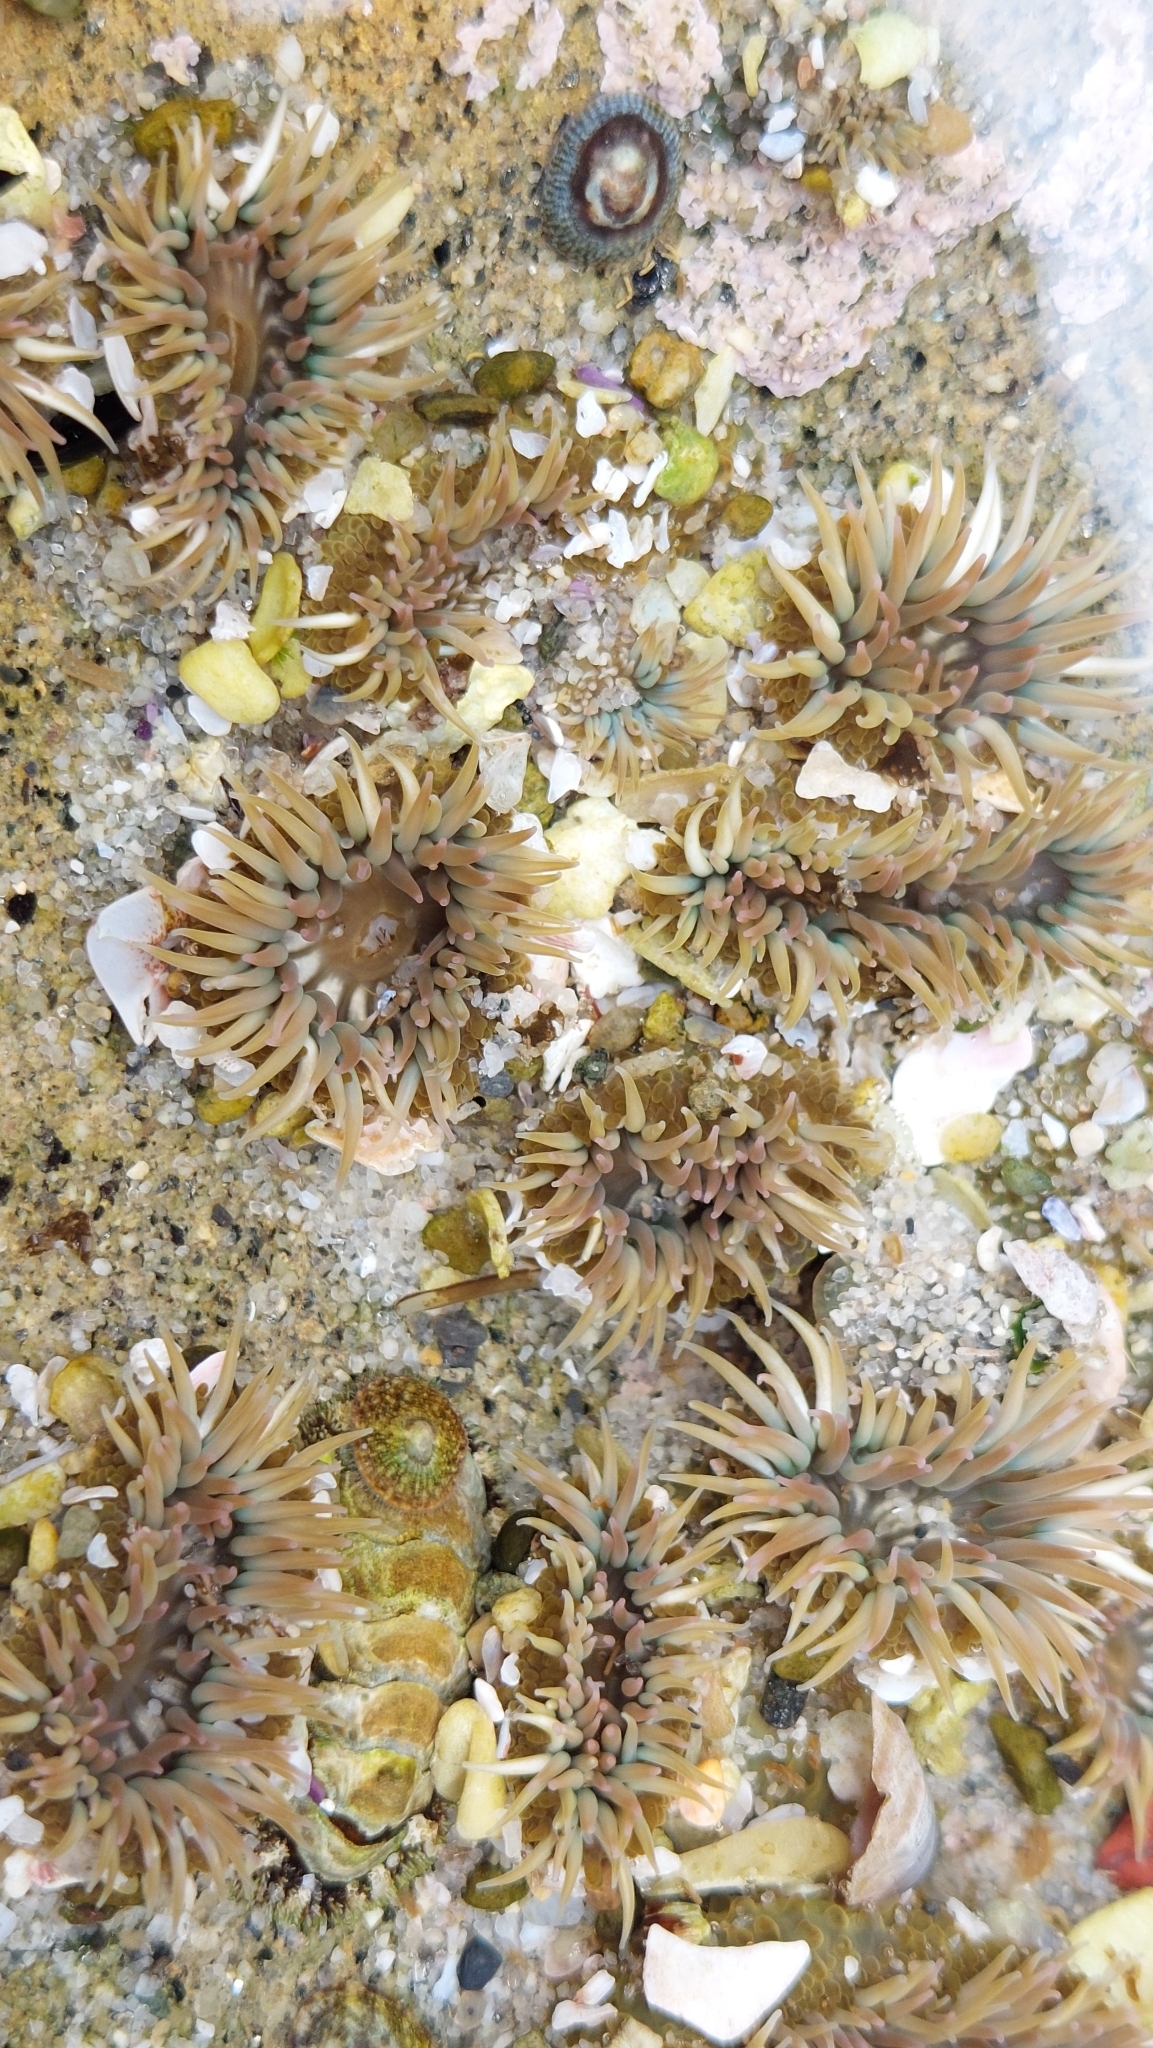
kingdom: Animalia
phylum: Cnidaria
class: Anthozoa
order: Actiniaria
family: Actiniidae
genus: Anthopleura
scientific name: Anthopleura elegantissima
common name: Clonal anemone
